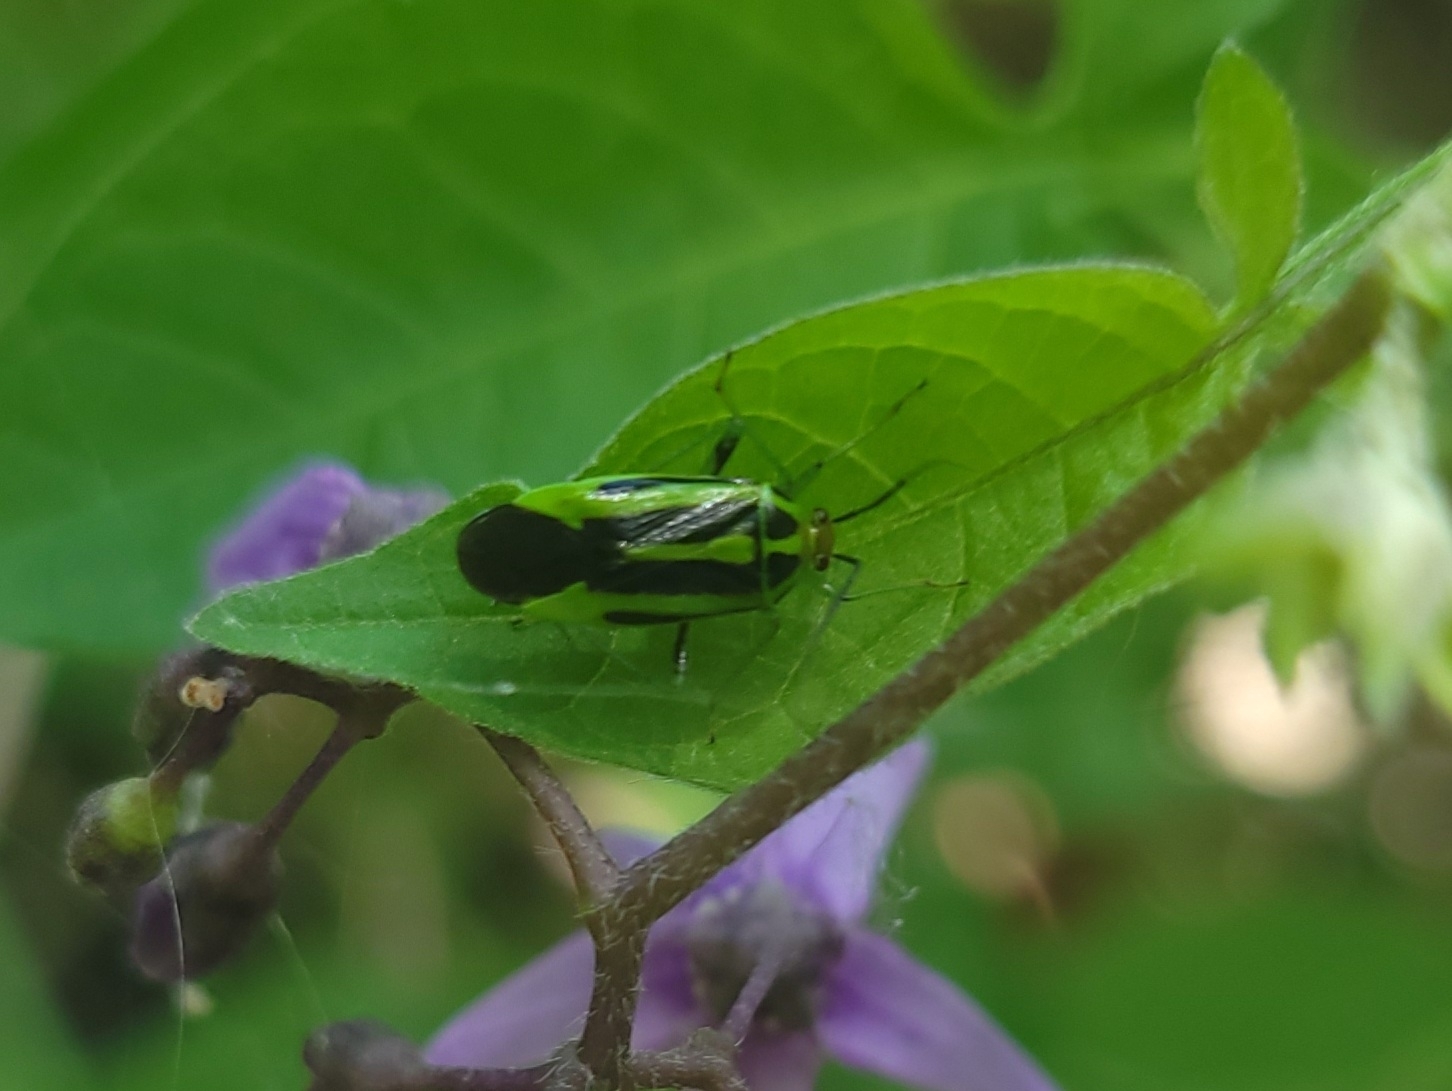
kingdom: Animalia
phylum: Arthropoda
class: Insecta
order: Hemiptera
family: Miridae
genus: Poecilocapsus
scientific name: Poecilocapsus lineatus
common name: Four-lined plant bug
